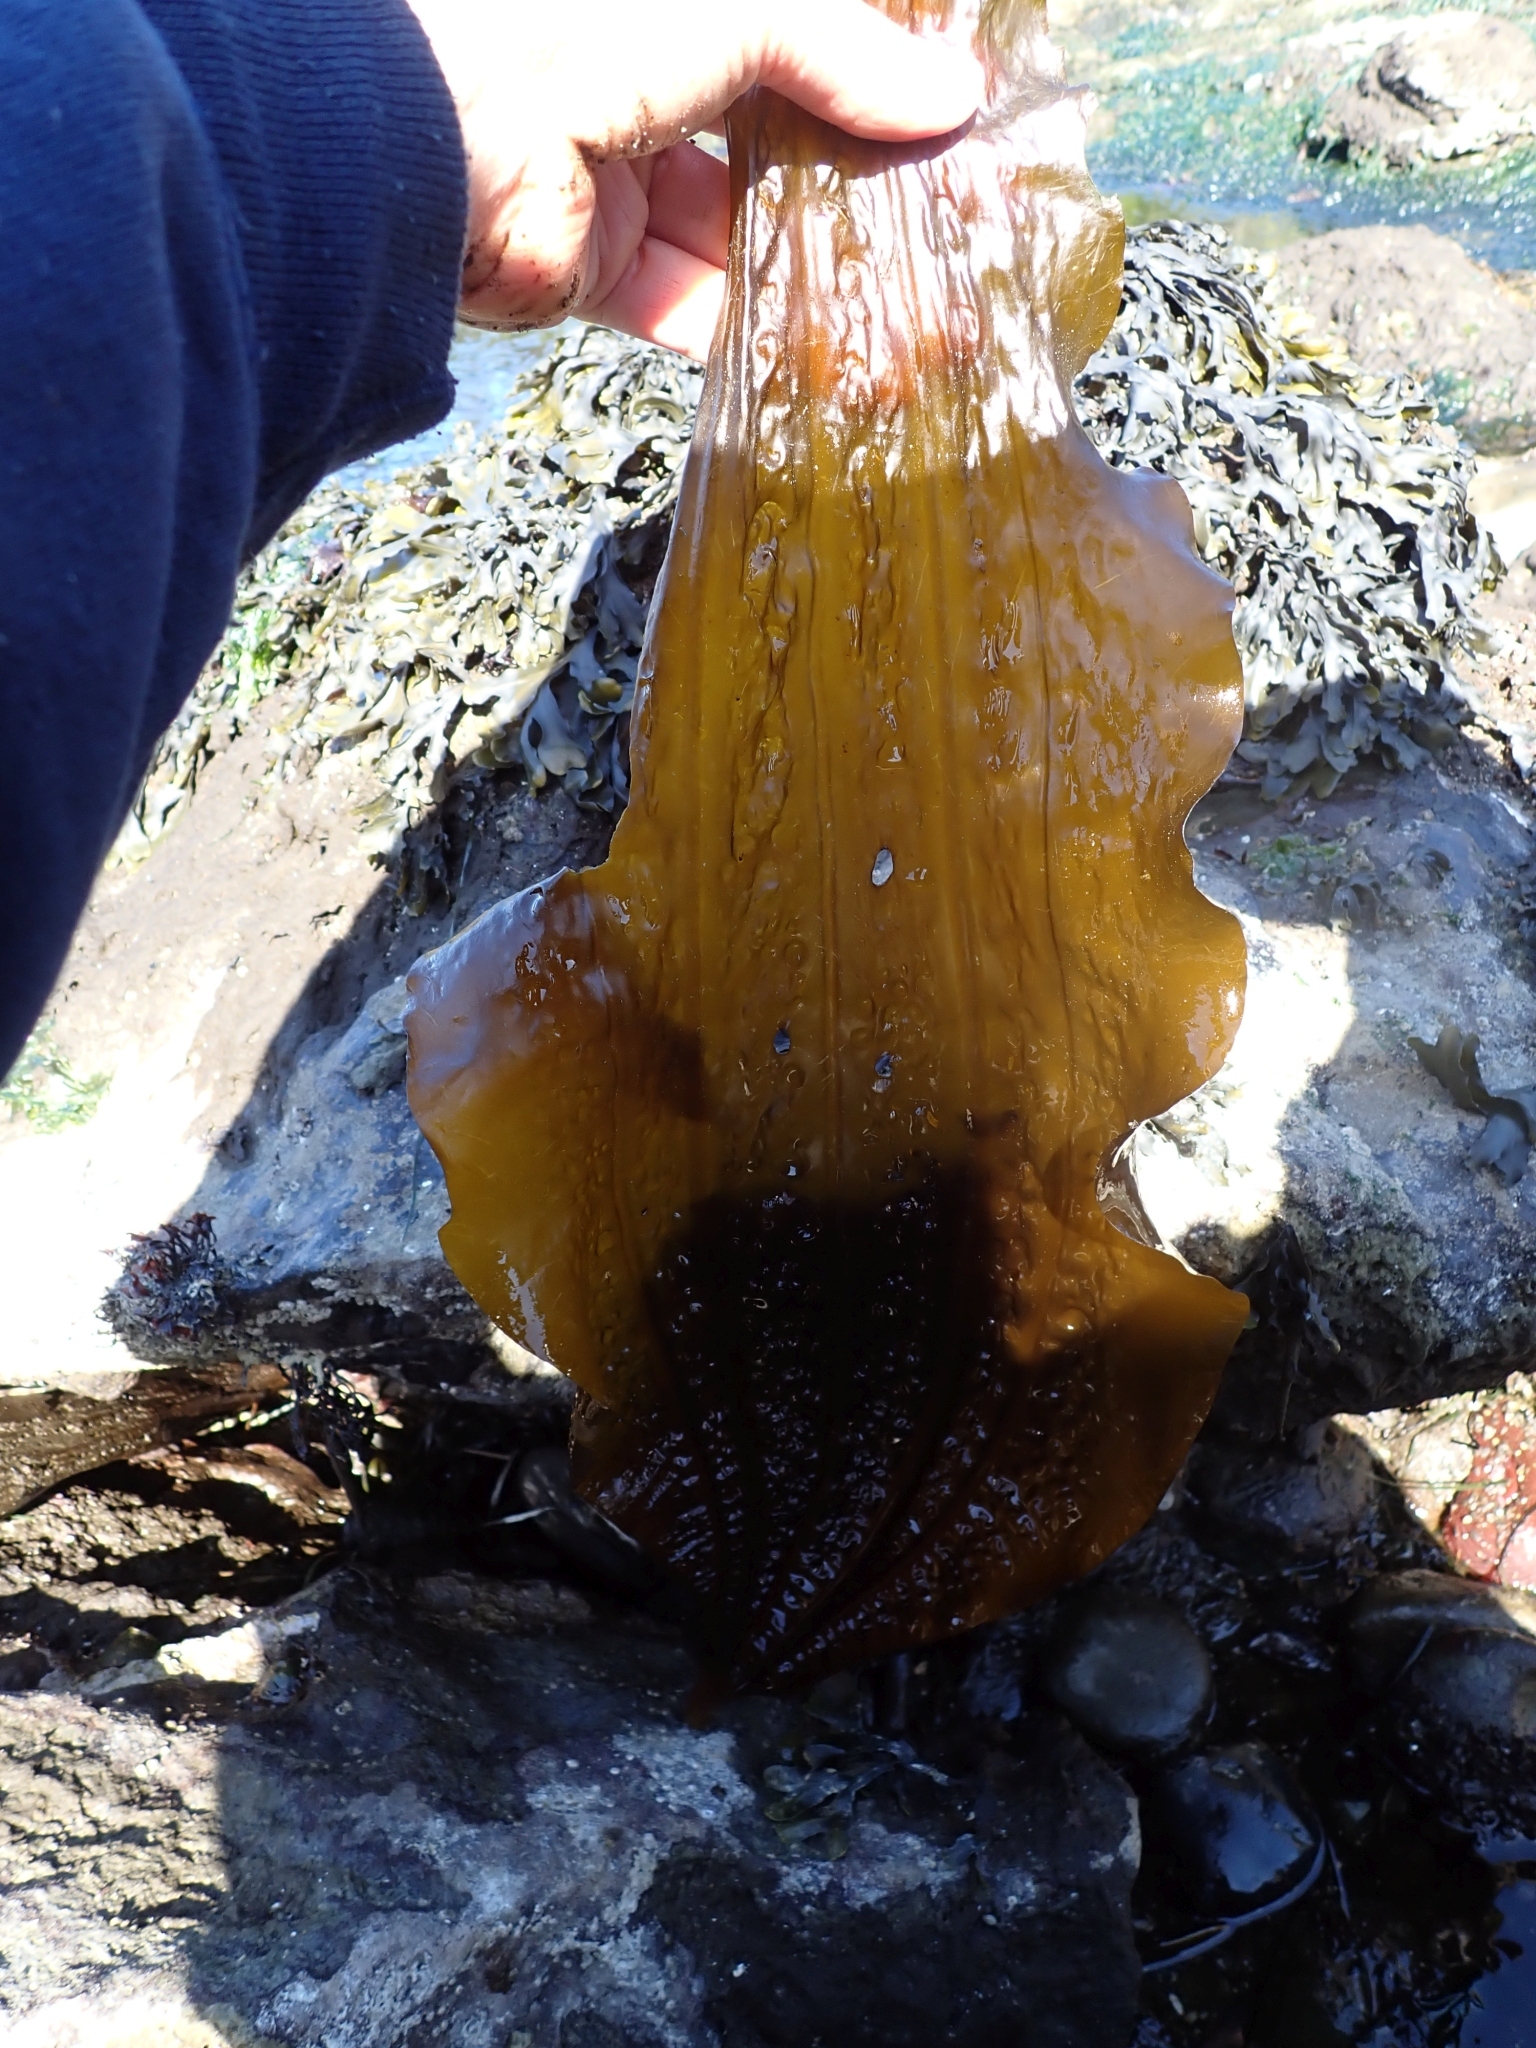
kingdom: Chromista
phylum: Ochrophyta
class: Phaeophyceae
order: Laminariales
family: Costariaceae
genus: Costaria
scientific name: Costaria costata
